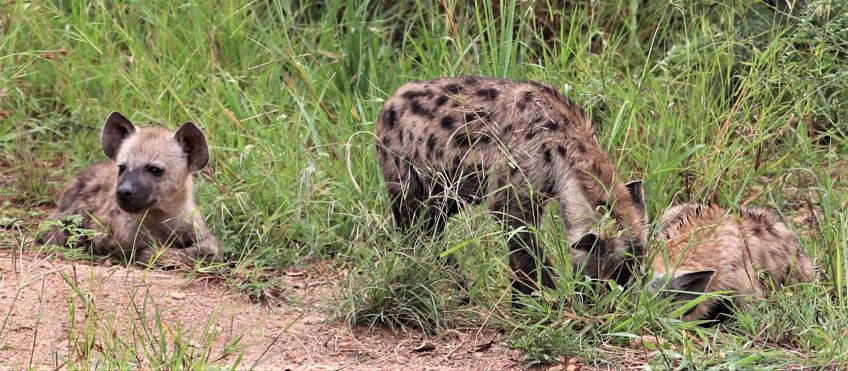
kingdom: Animalia
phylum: Chordata
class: Mammalia
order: Carnivora
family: Hyaenidae
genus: Crocuta
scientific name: Crocuta crocuta
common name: Spotted hyaena
